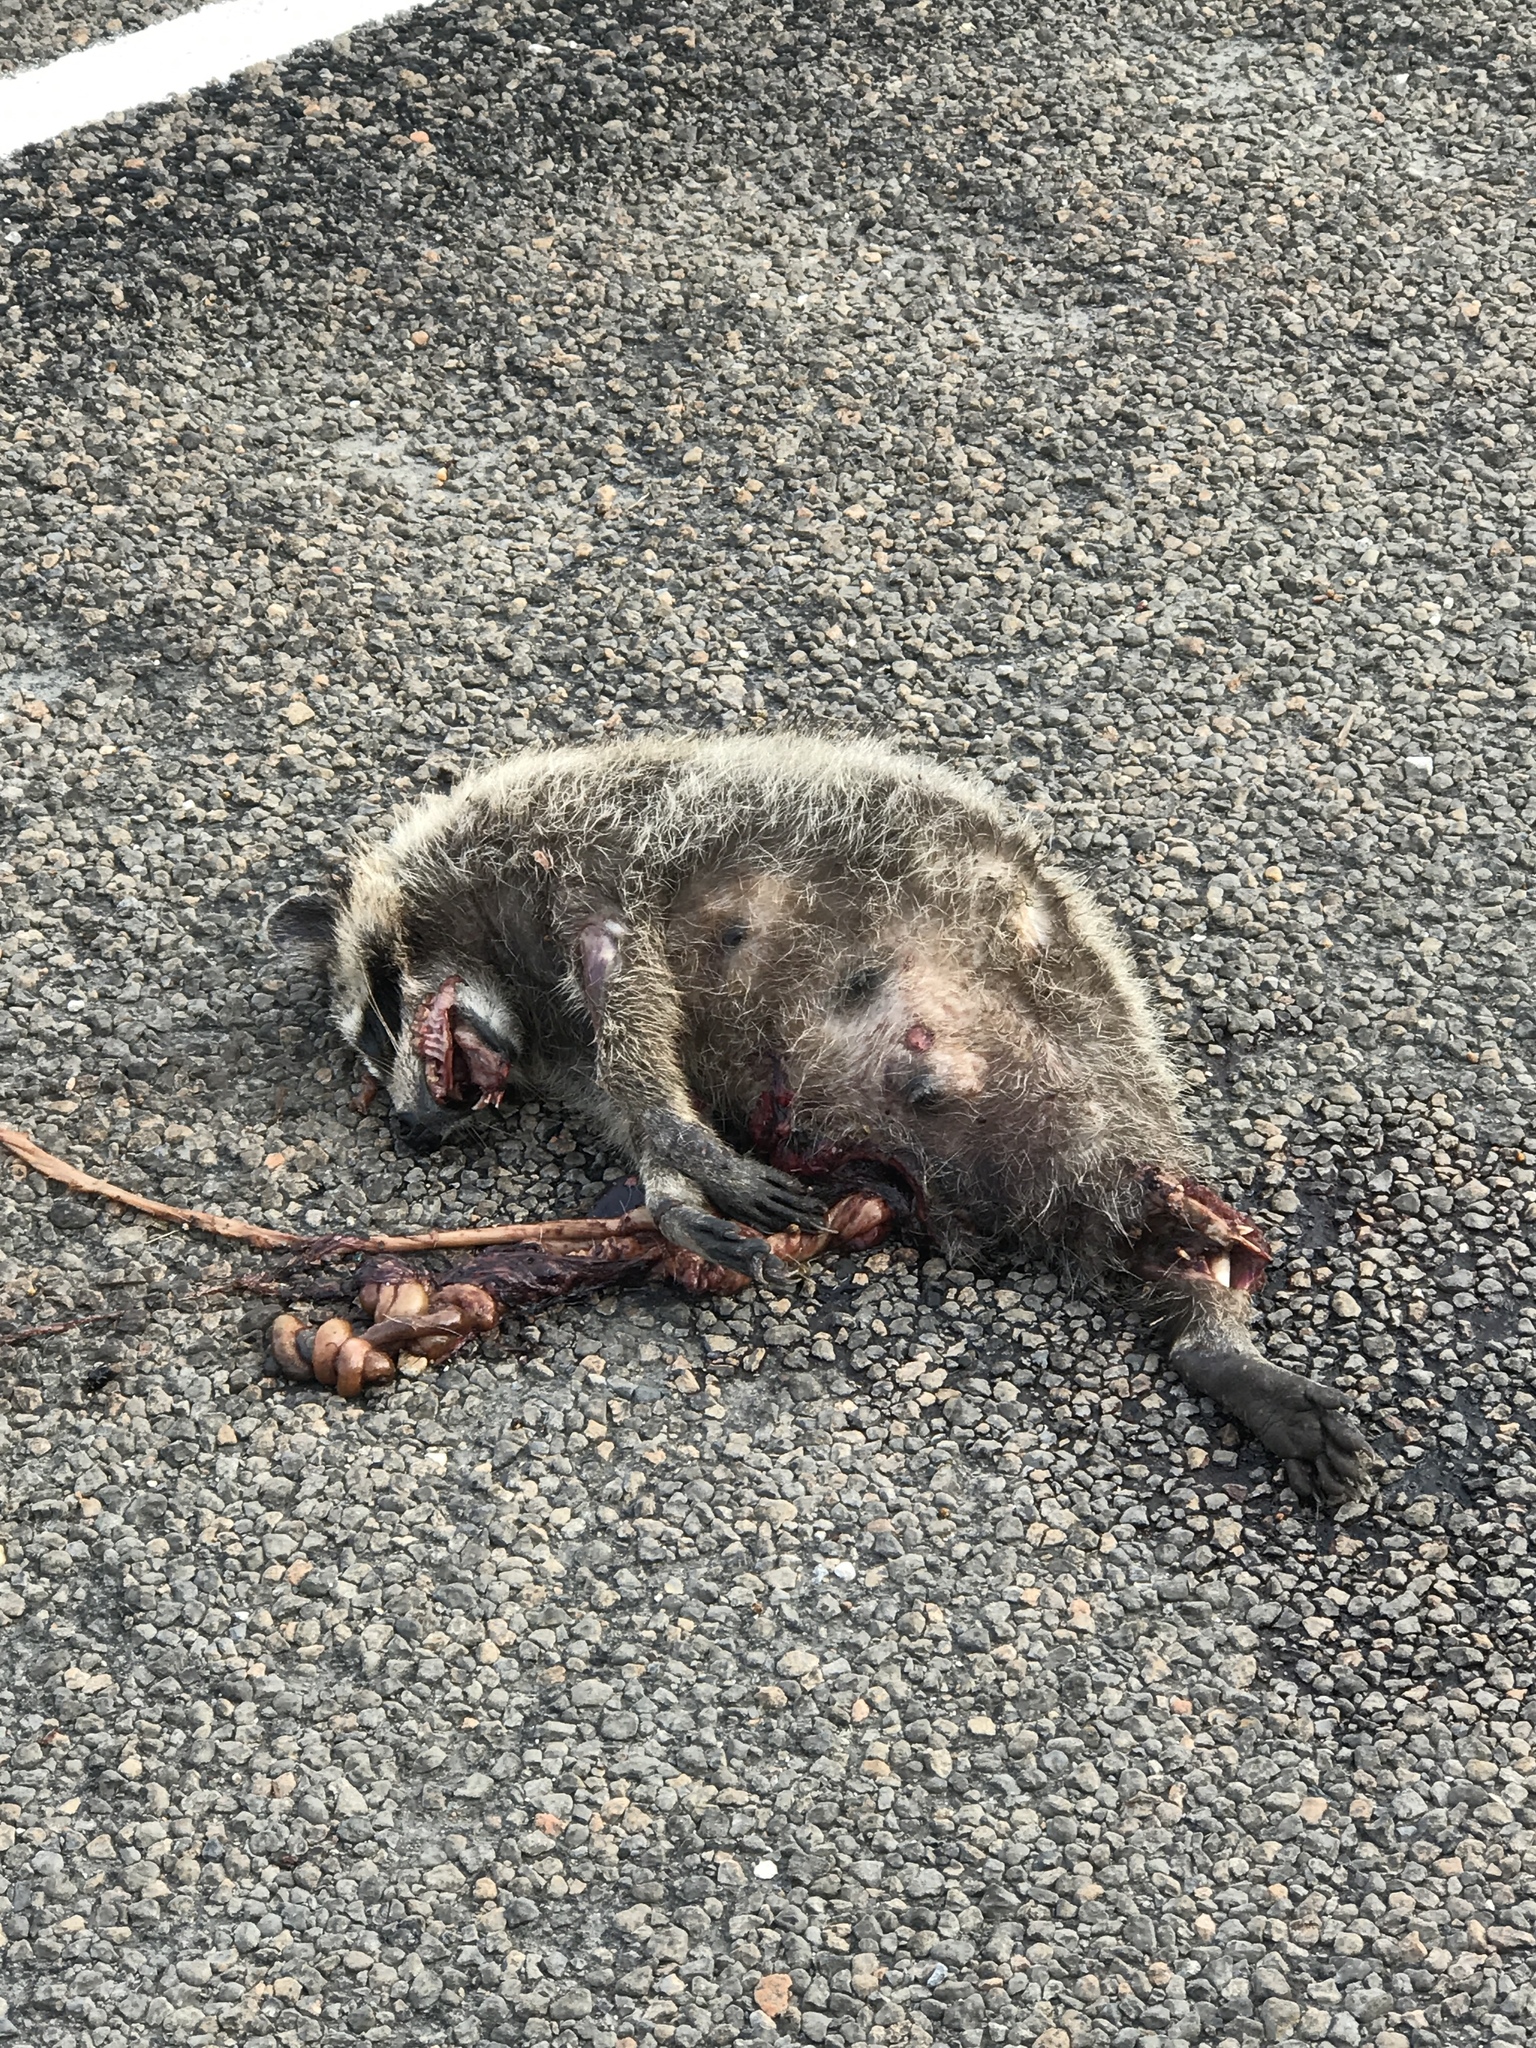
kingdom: Animalia
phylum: Chordata
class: Mammalia
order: Carnivora
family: Procyonidae
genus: Procyon
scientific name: Procyon lotor
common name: Raccoon
